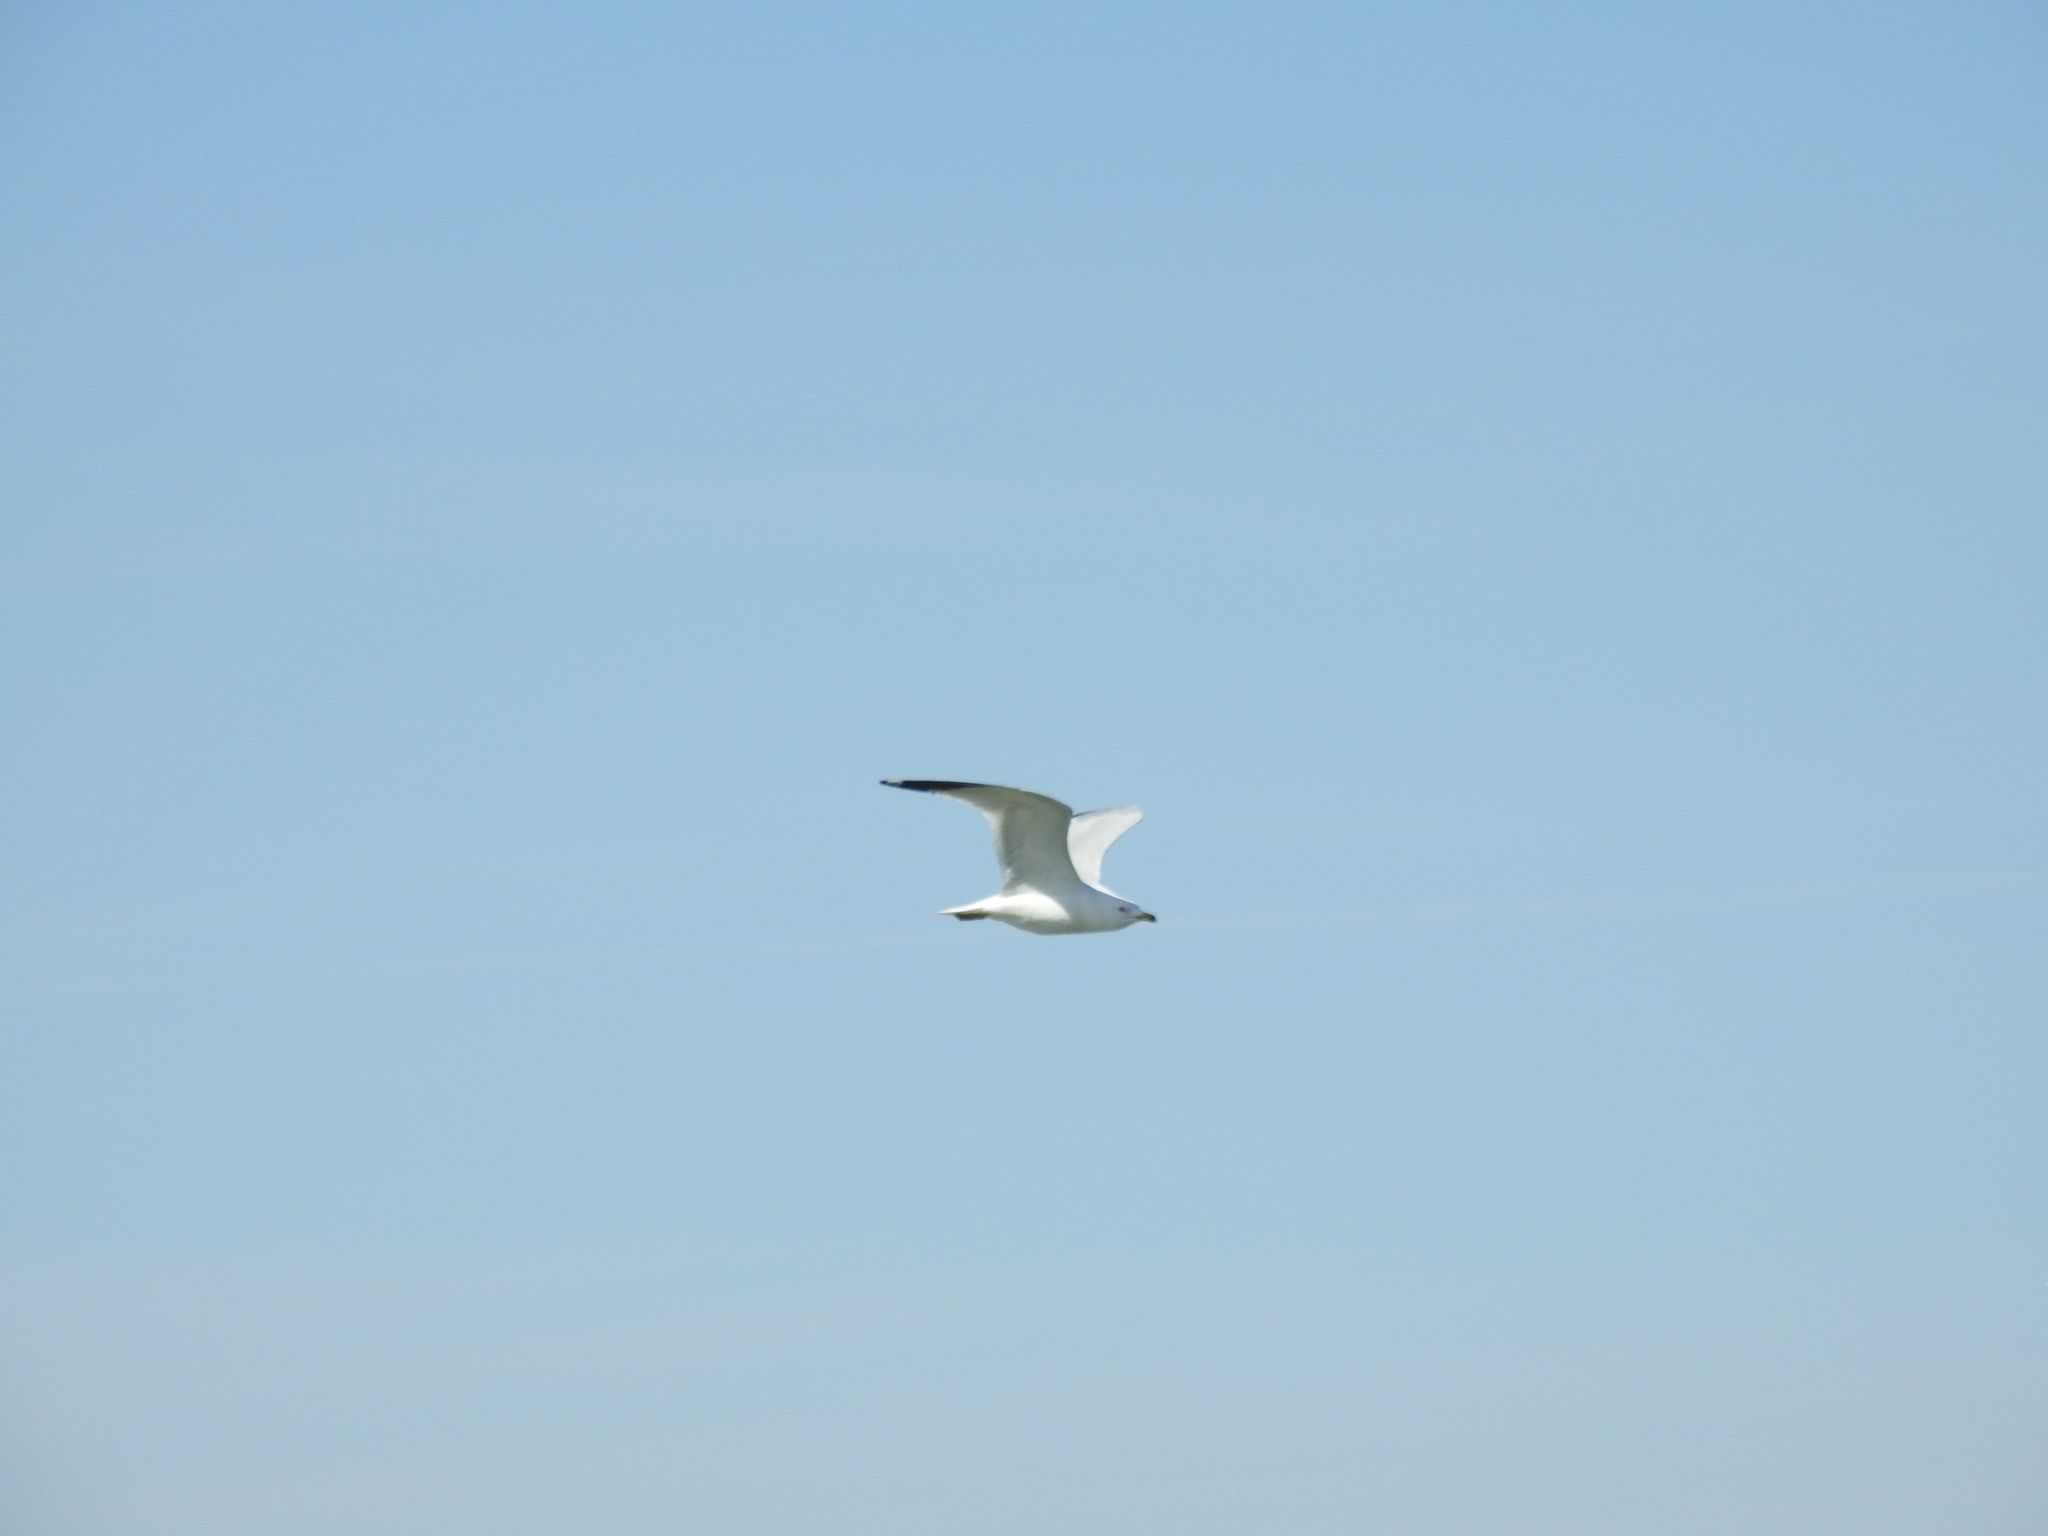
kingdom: Animalia
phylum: Chordata
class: Aves
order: Charadriiformes
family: Laridae
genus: Larus
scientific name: Larus delawarensis
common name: Ring-billed gull
